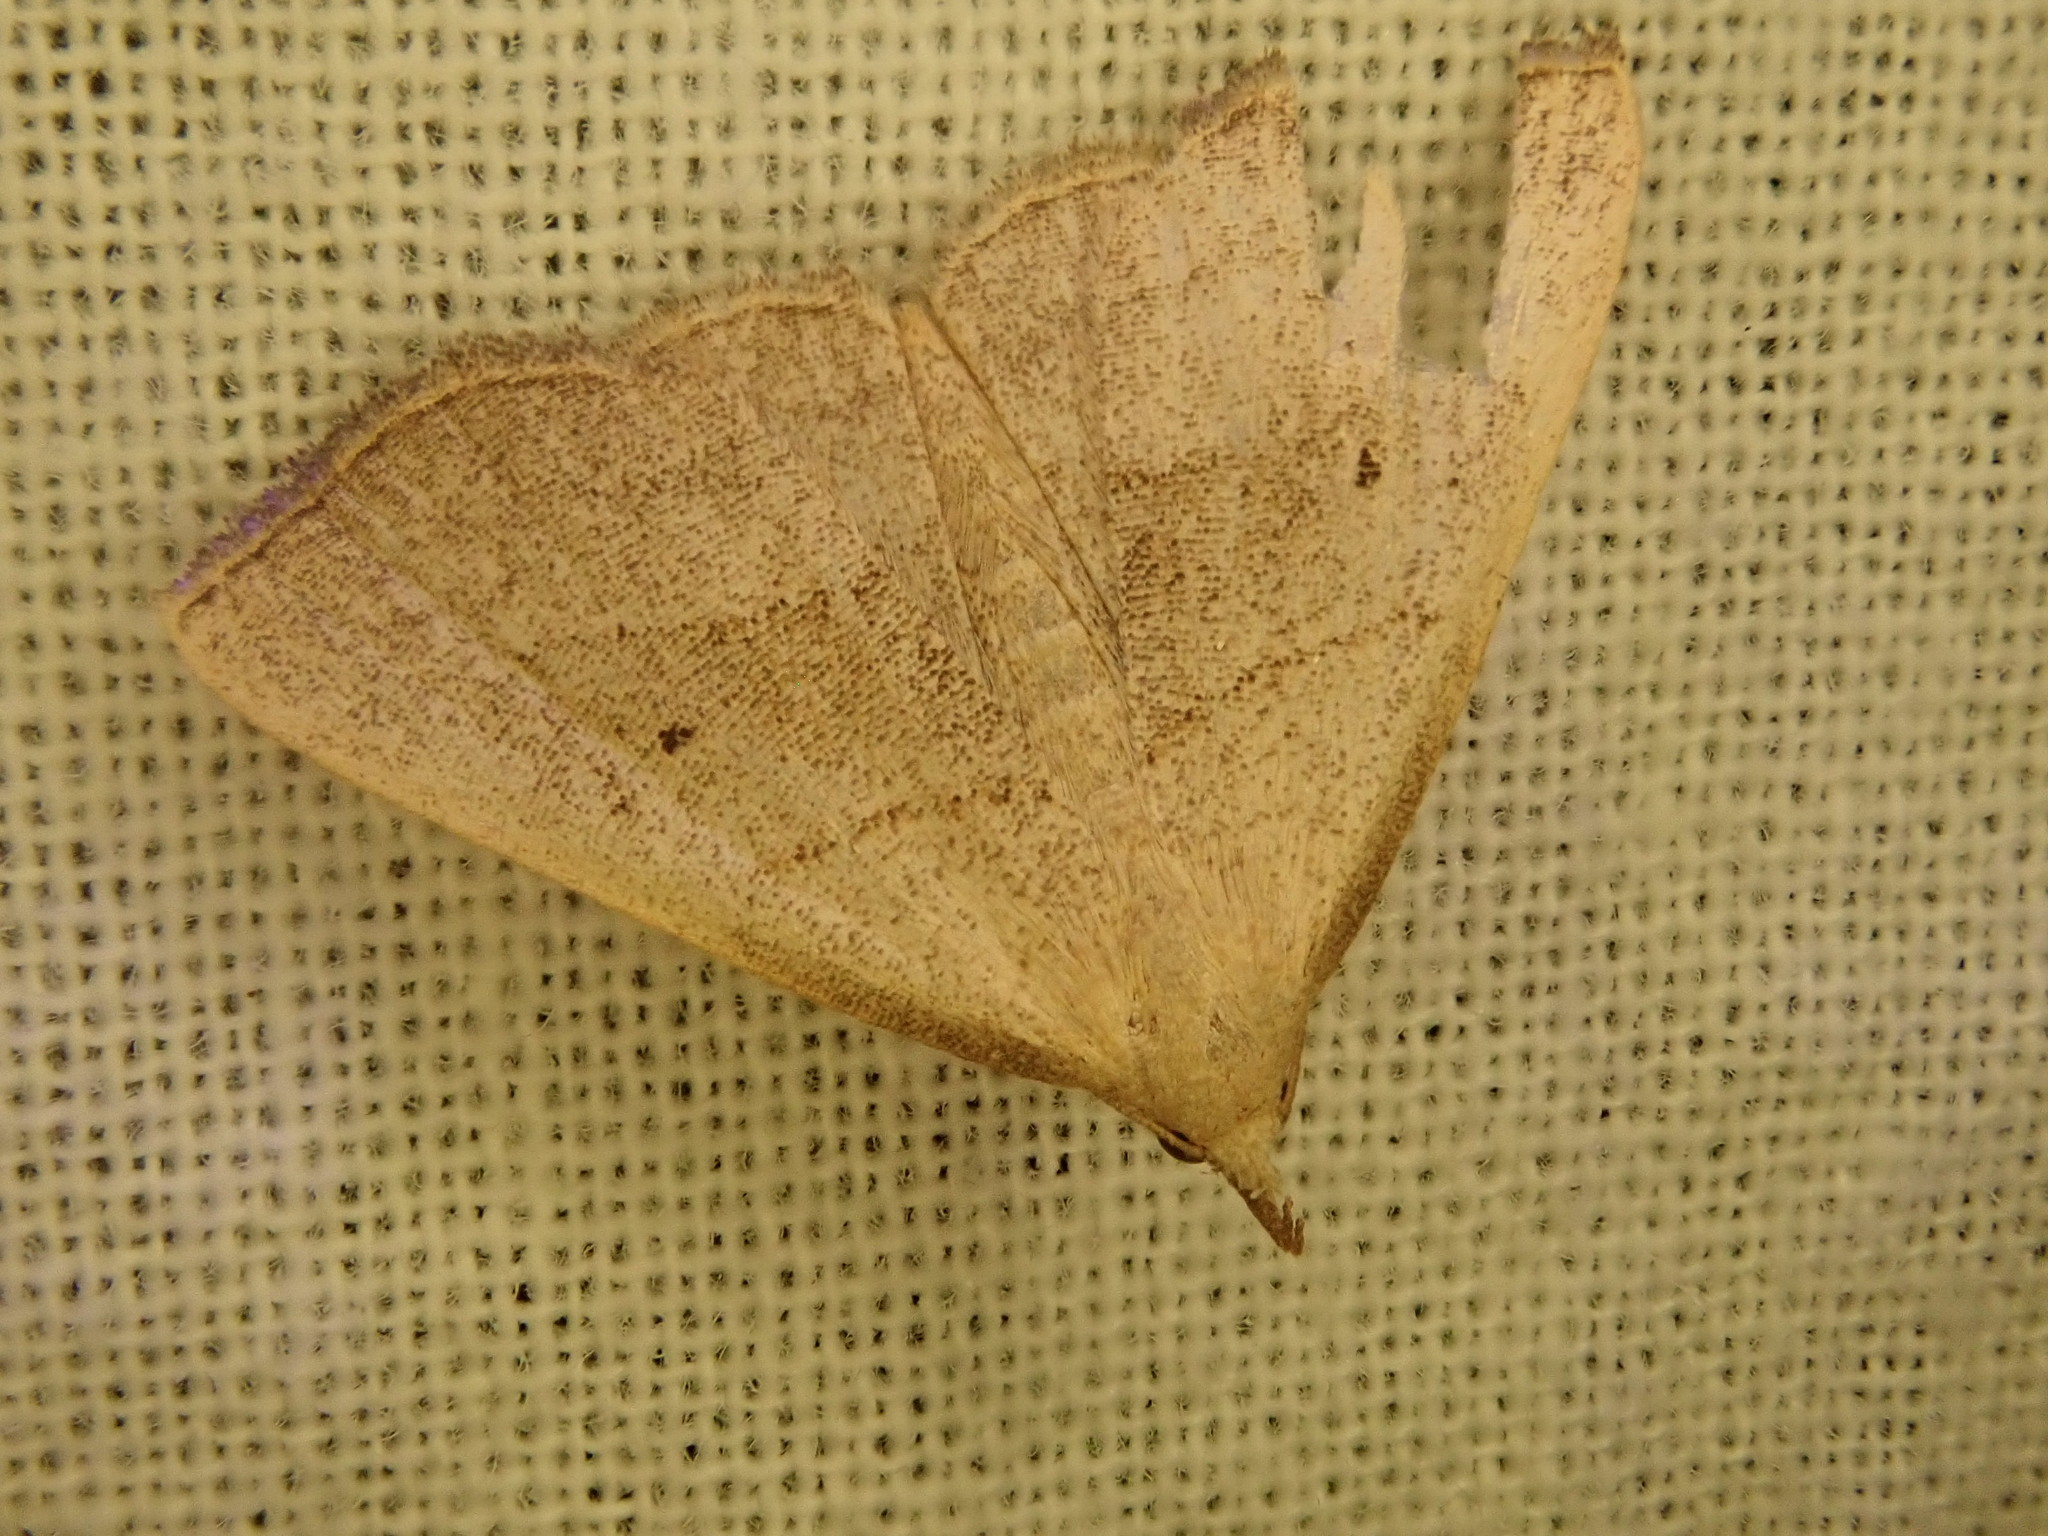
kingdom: Animalia
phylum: Arthropoda
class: Insecta
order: Lepidoptera
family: Erebidae
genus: Macrochilo
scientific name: Macrochilo litophora
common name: Brown-lined owlet
